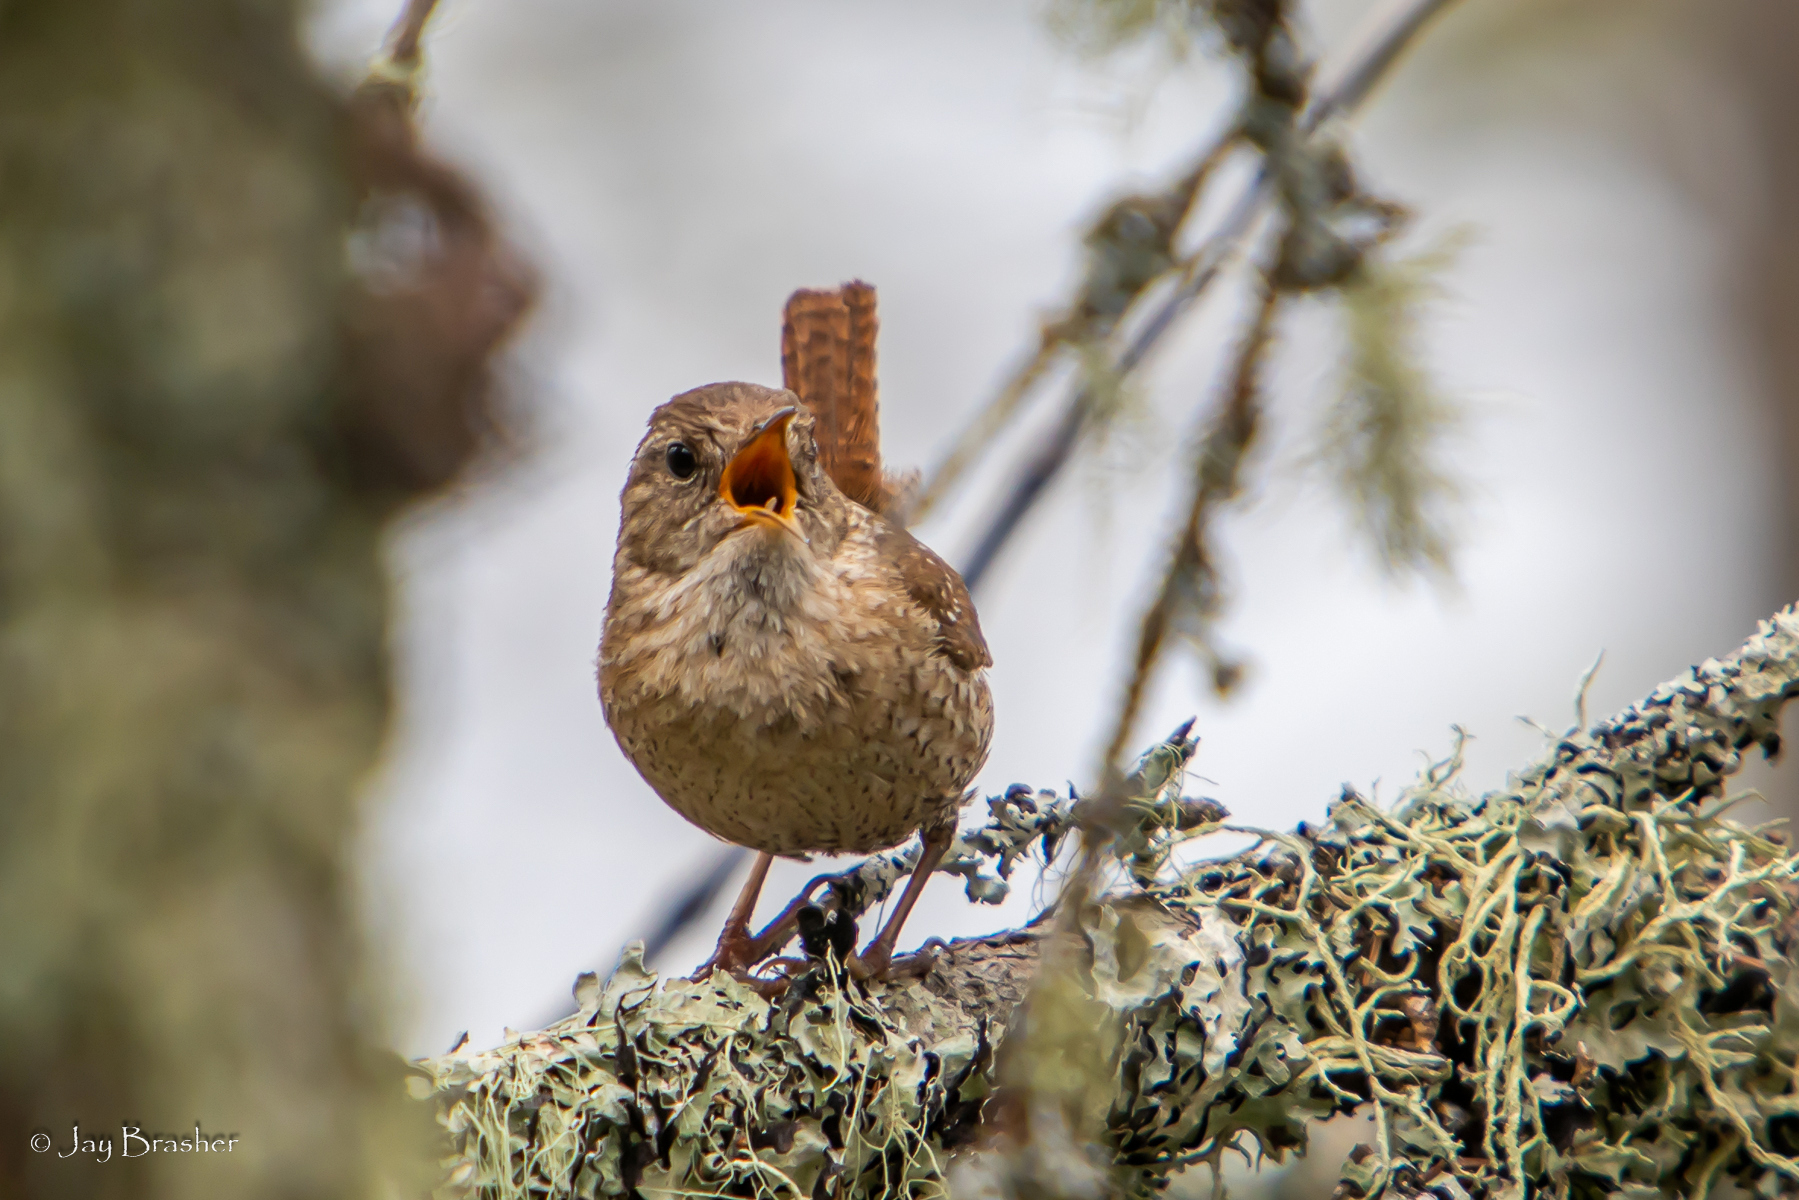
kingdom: Animalia
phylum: Chordata
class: Aves
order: Passeriformes
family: Troglodytidae
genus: Troglodytes
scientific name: Troglodytes hiemalis
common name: Winter wren
